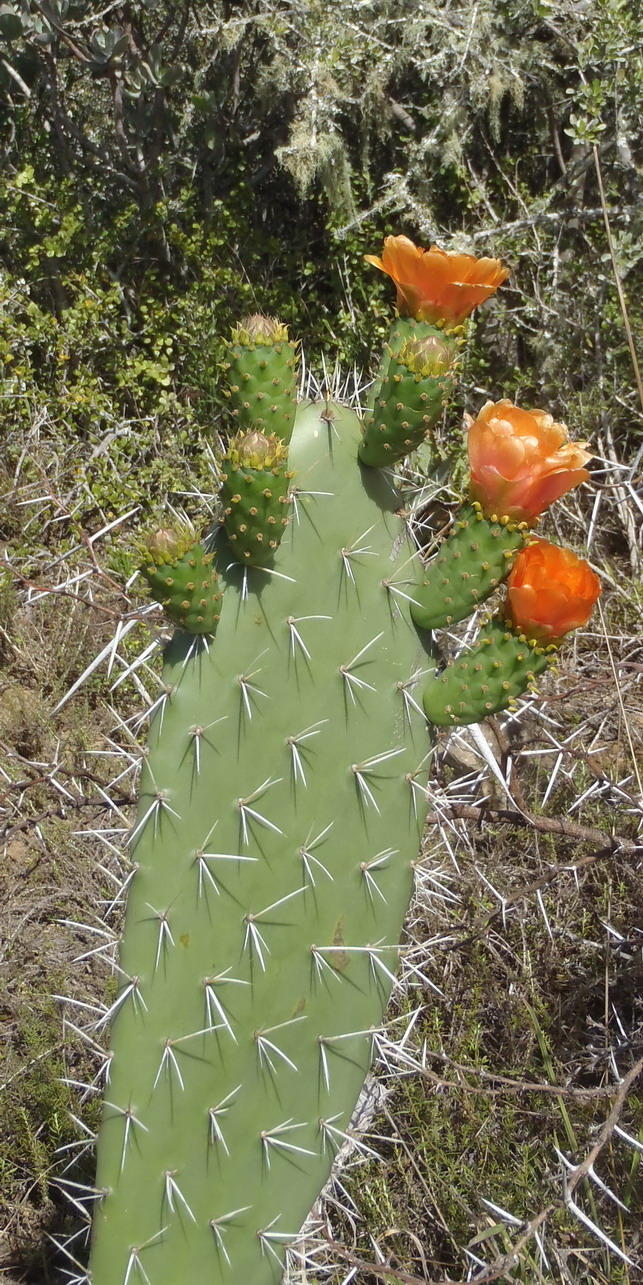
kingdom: Plantae
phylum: Tracheophyta
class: Magnoliopsida
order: Caryophyllales
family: Cactaceae
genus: Opuntia
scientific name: Opuntia ficus-indica
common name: Barbary fig
